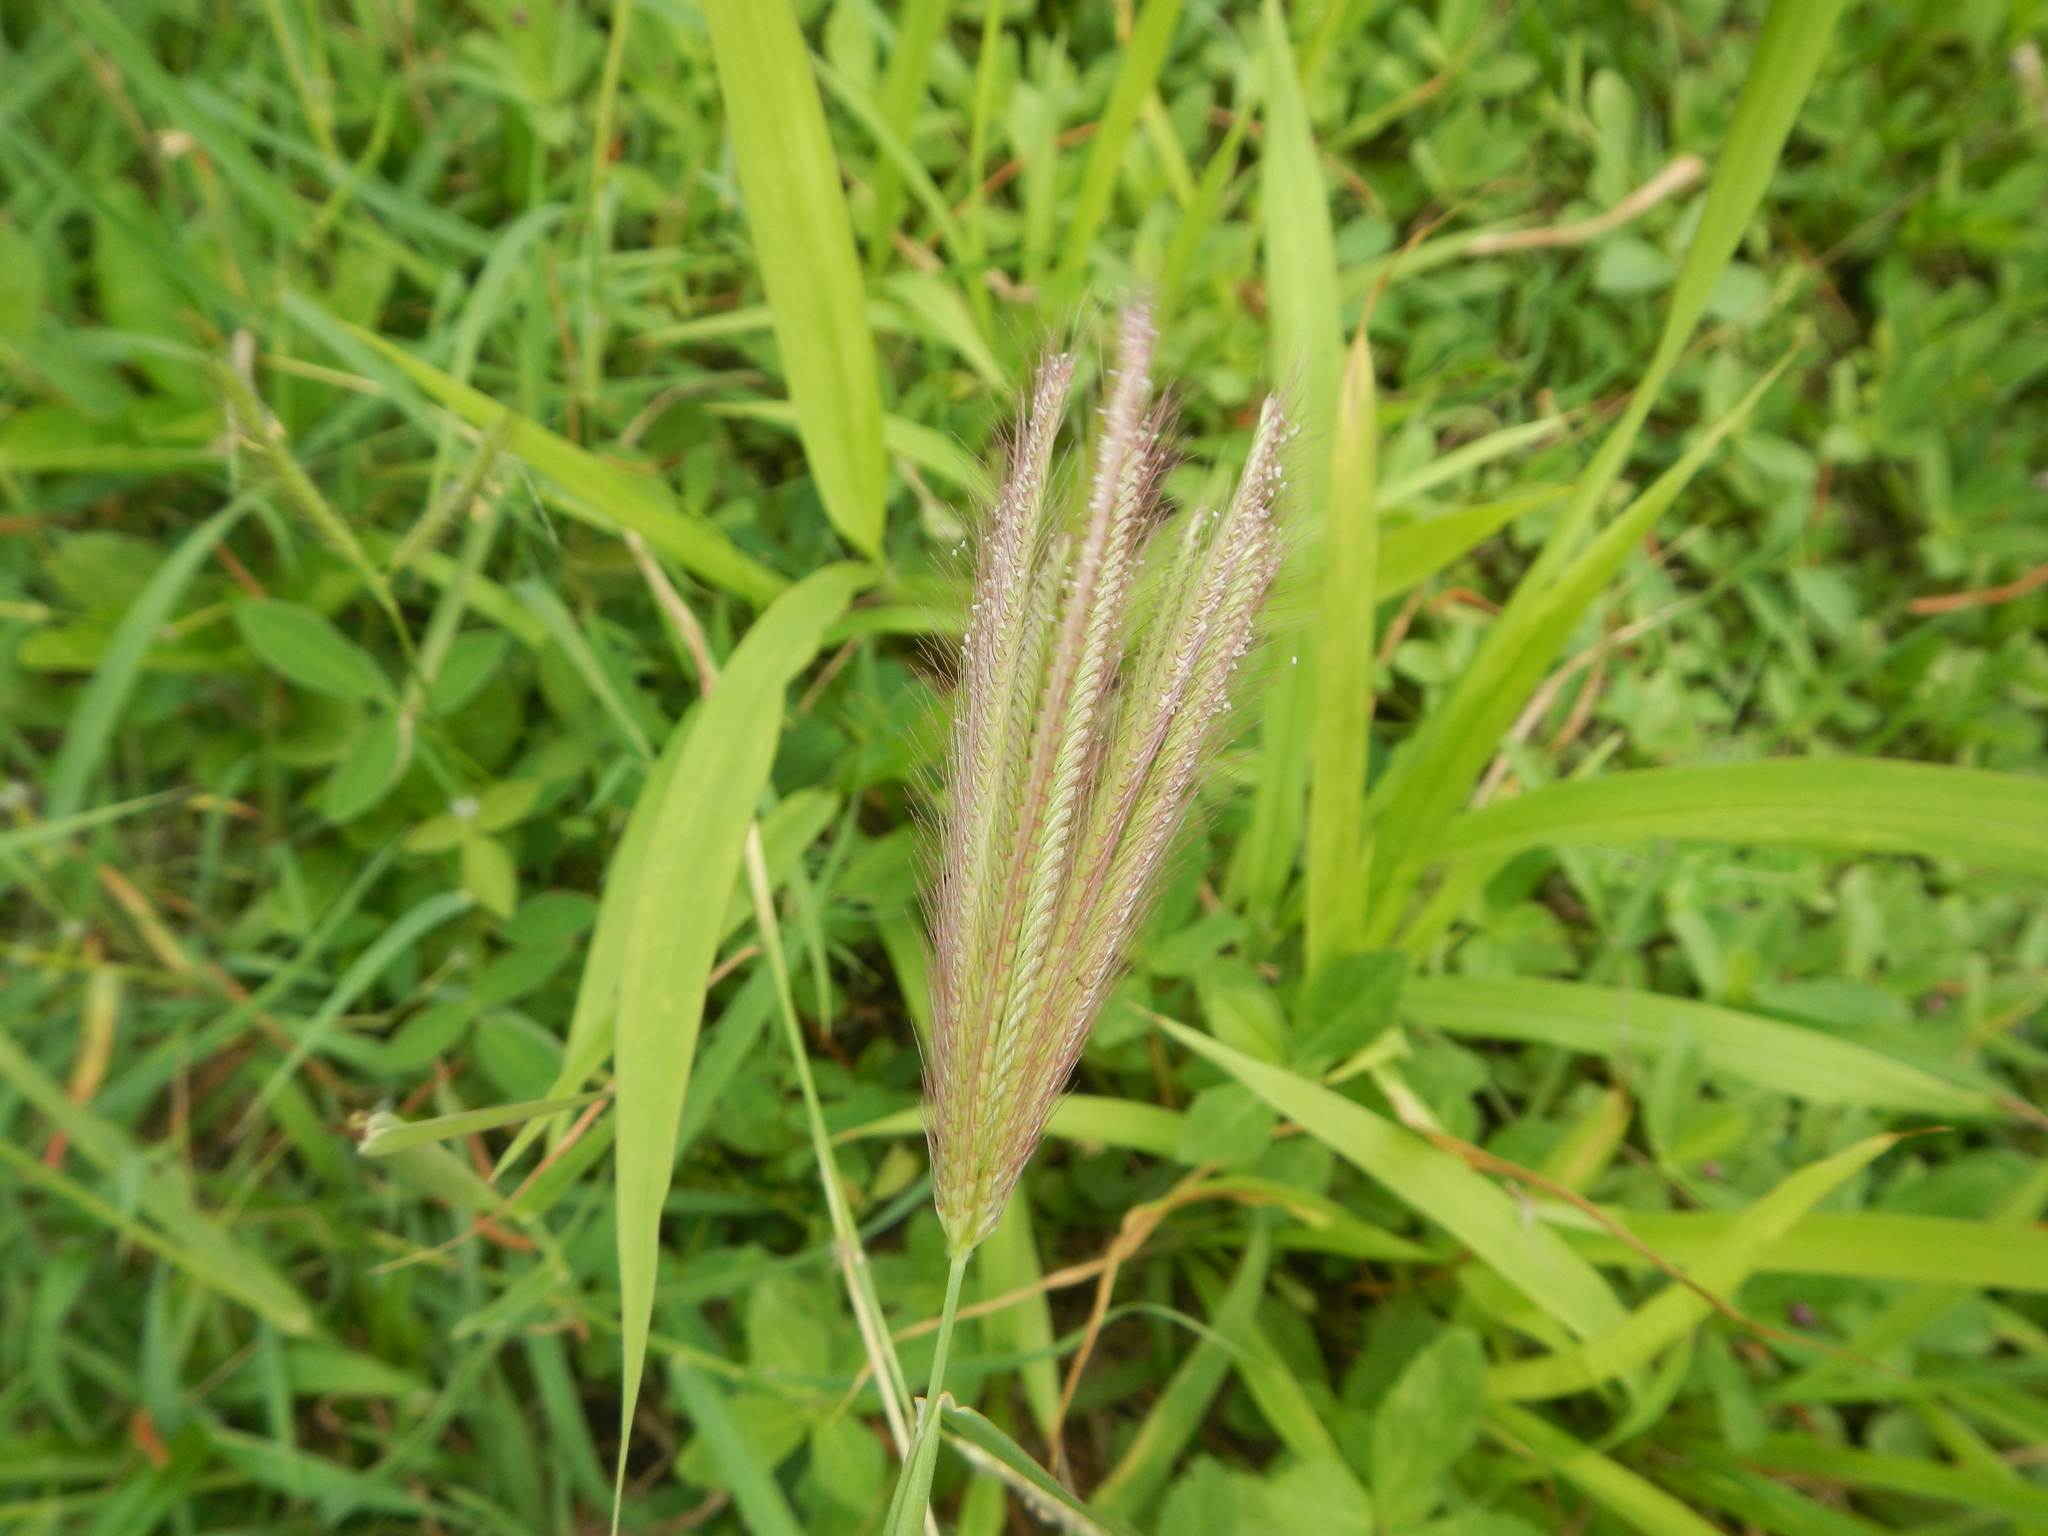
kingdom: Plantae
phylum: Tracheophyta
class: Liliopsida
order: Poales
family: Poaceae
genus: Chloris
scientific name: Chloris barbata
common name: Swollen fingergrass
